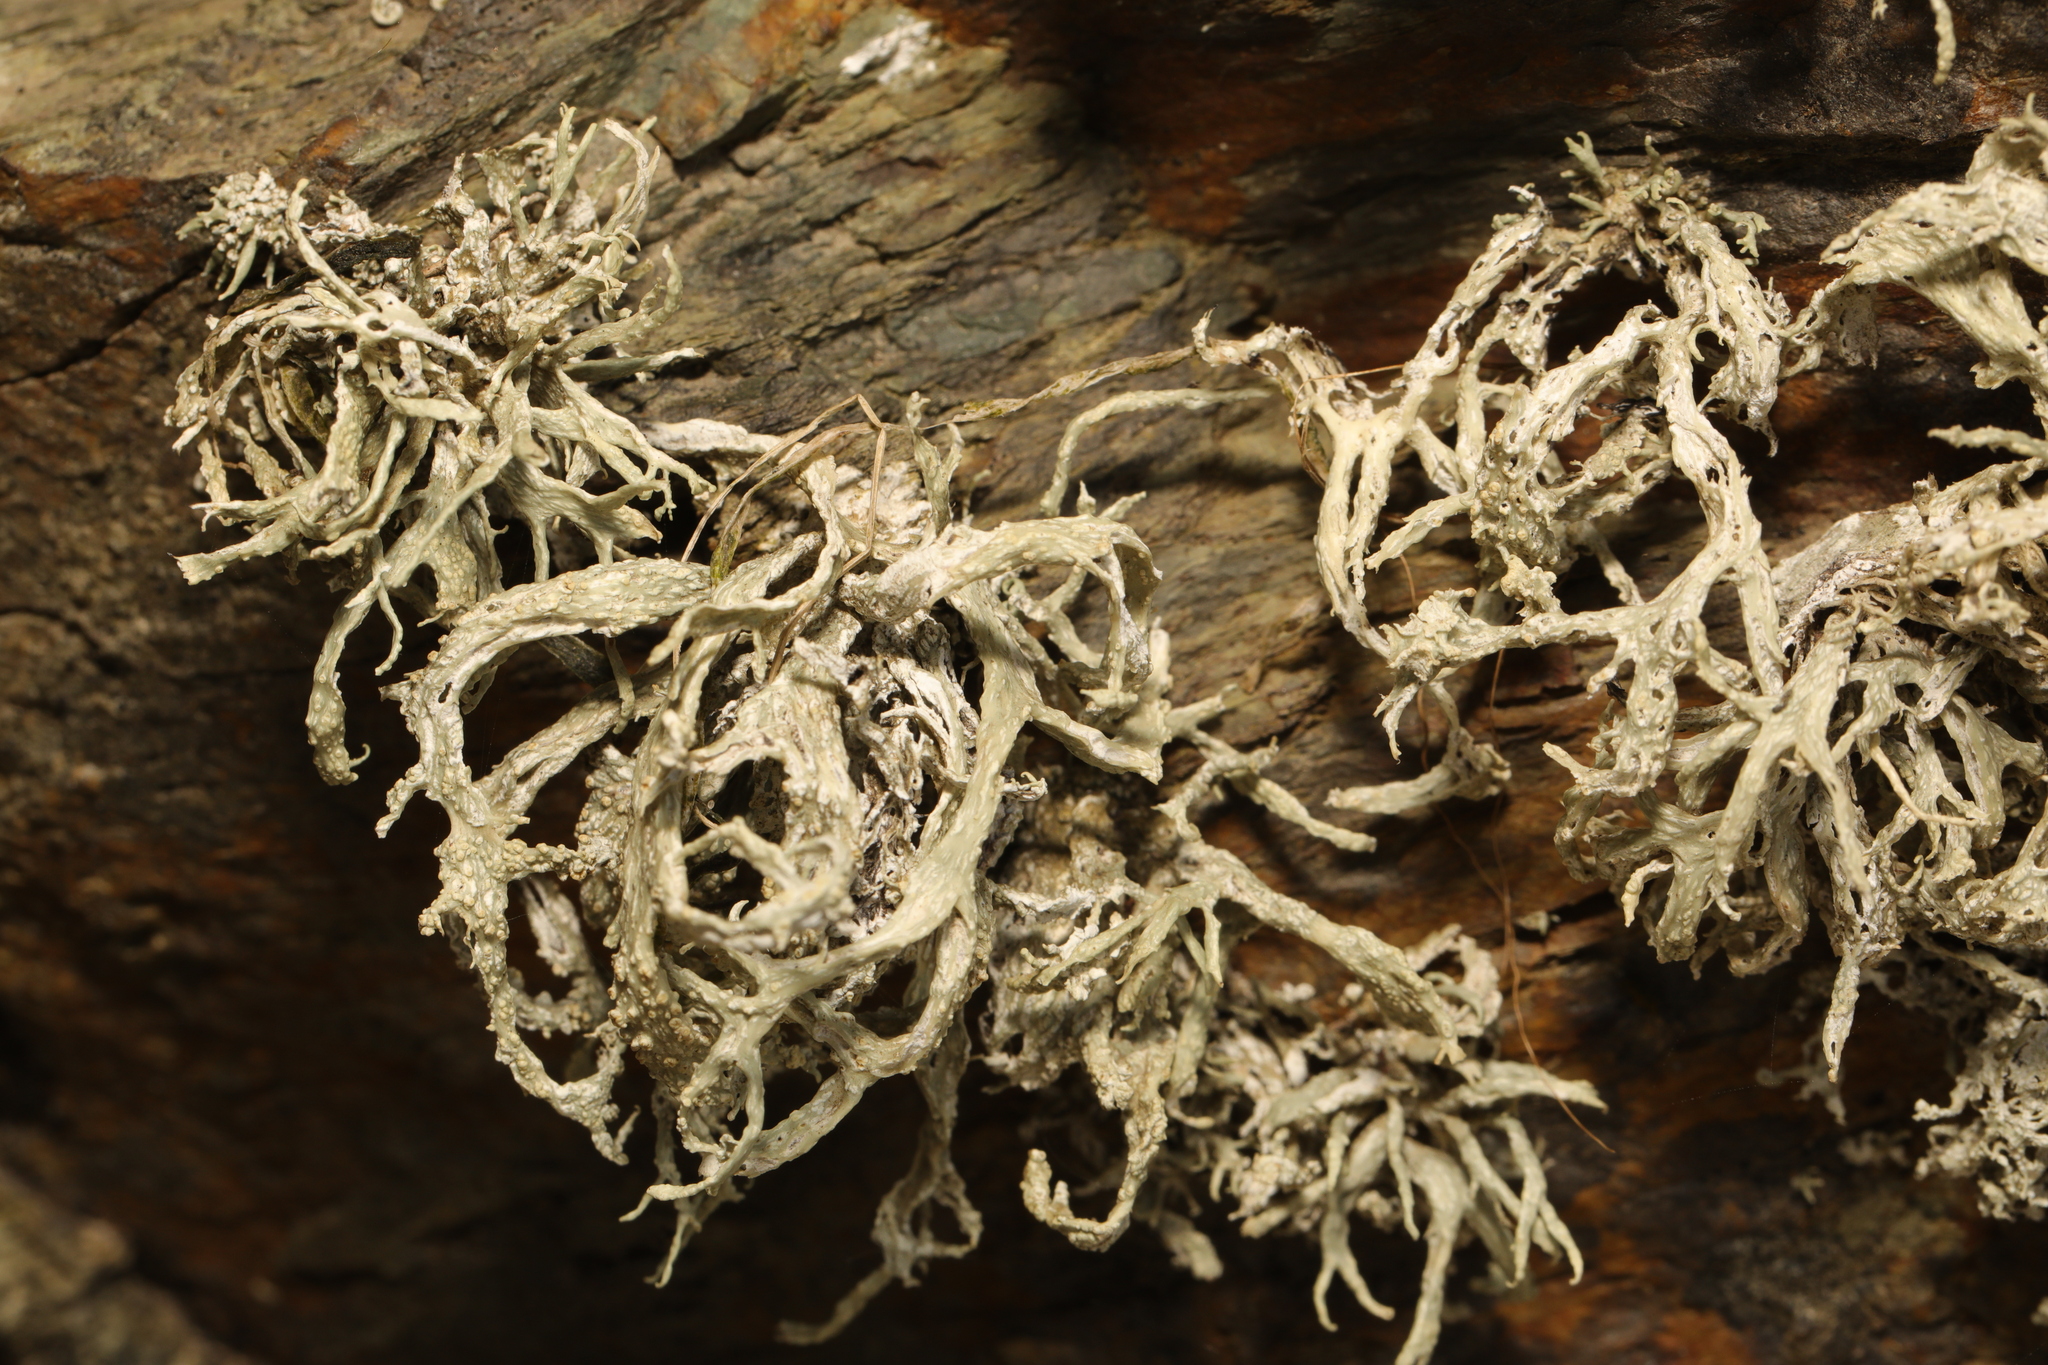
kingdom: Fungi
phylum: Ascomycota
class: Lecanoromycetes
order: Lecanorales
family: Ramalinaceae
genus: Ramalina
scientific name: Ramalina siliquosa
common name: Sea ivory
